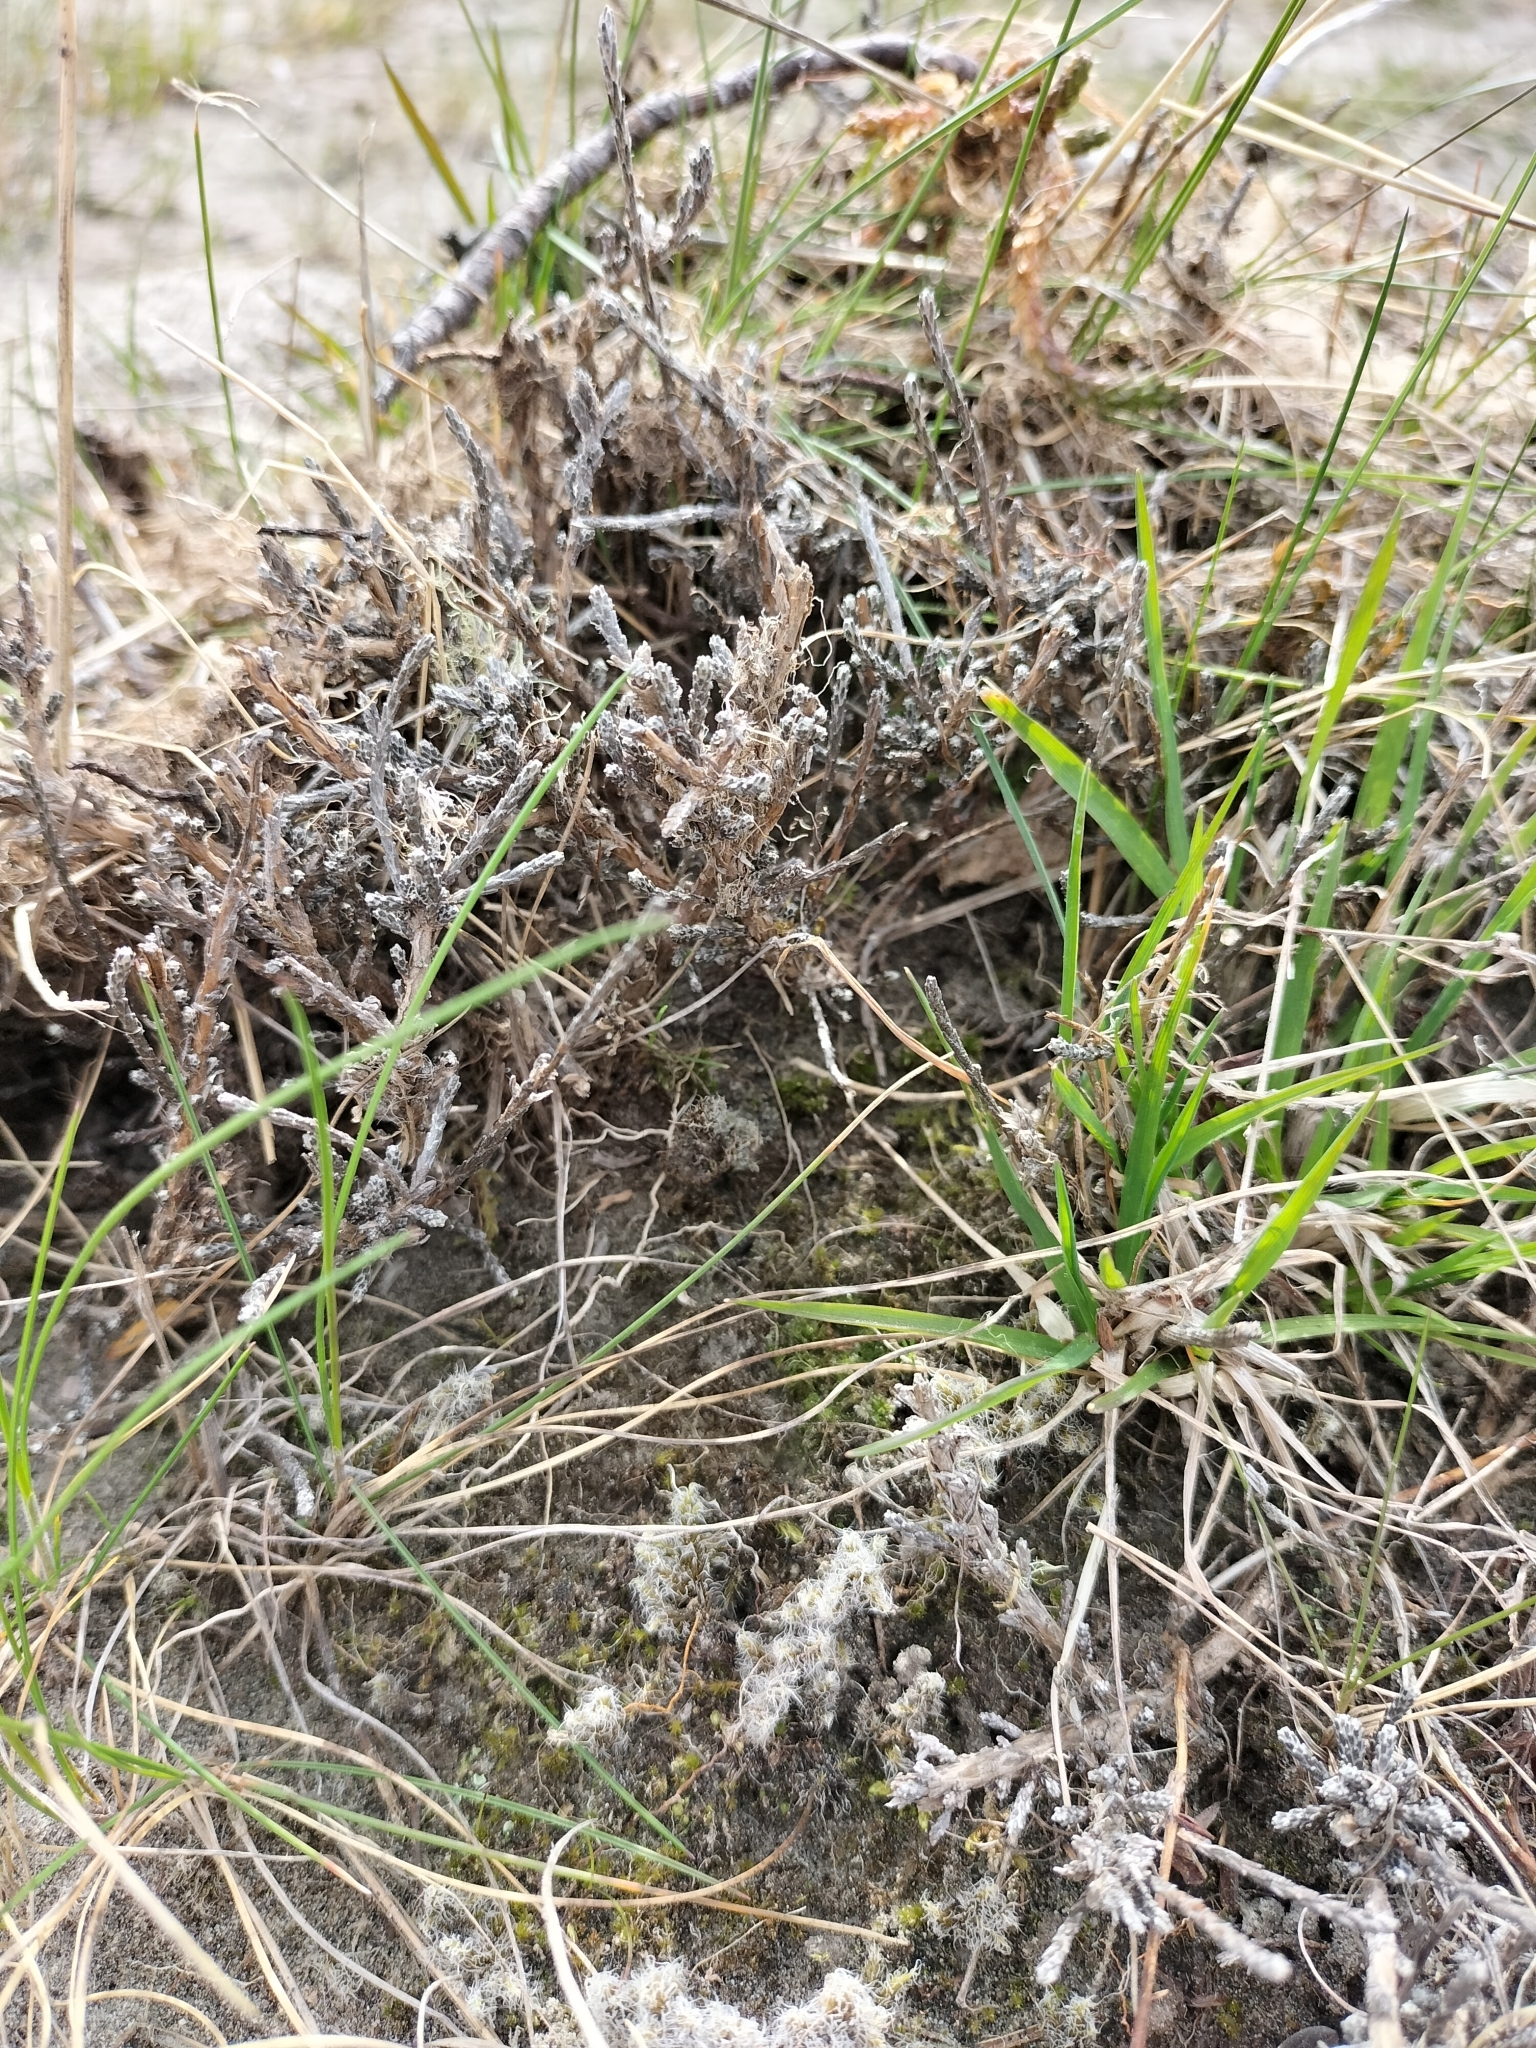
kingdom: Plantae
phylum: Tracheophyta
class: Magnoliopsida
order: Asterales
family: Asteraceae
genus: Ozothamnus
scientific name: Ozothamnus depressus
